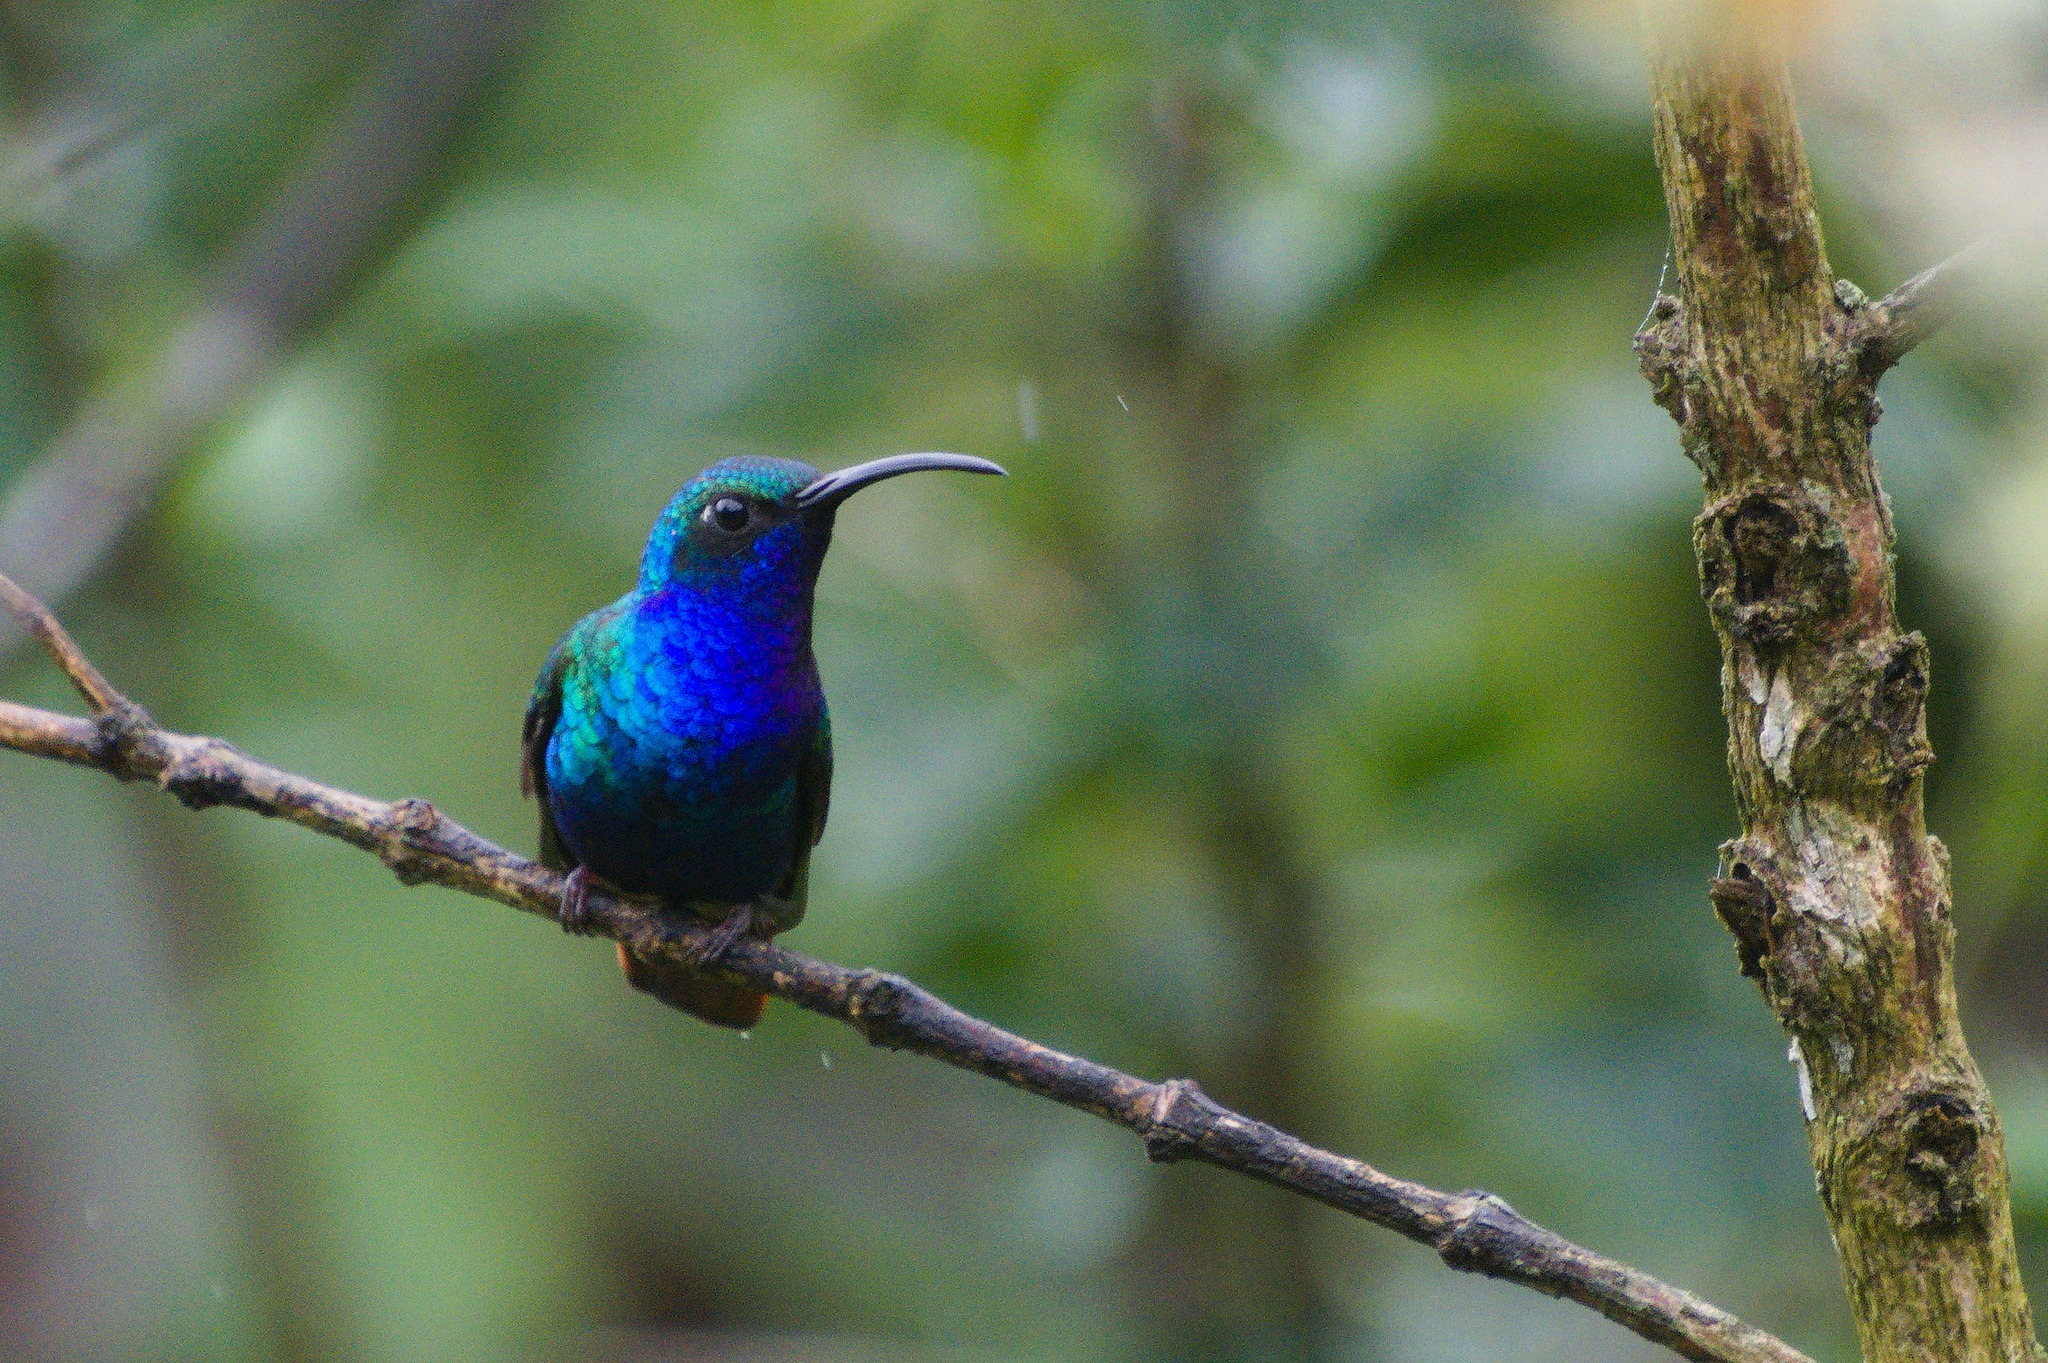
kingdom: Animalia
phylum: Chordata
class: Aves
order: Apodiformes
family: Trochilidae
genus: Campylopterus
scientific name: Campylopterus falcatus
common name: Lazuline sabrewing
